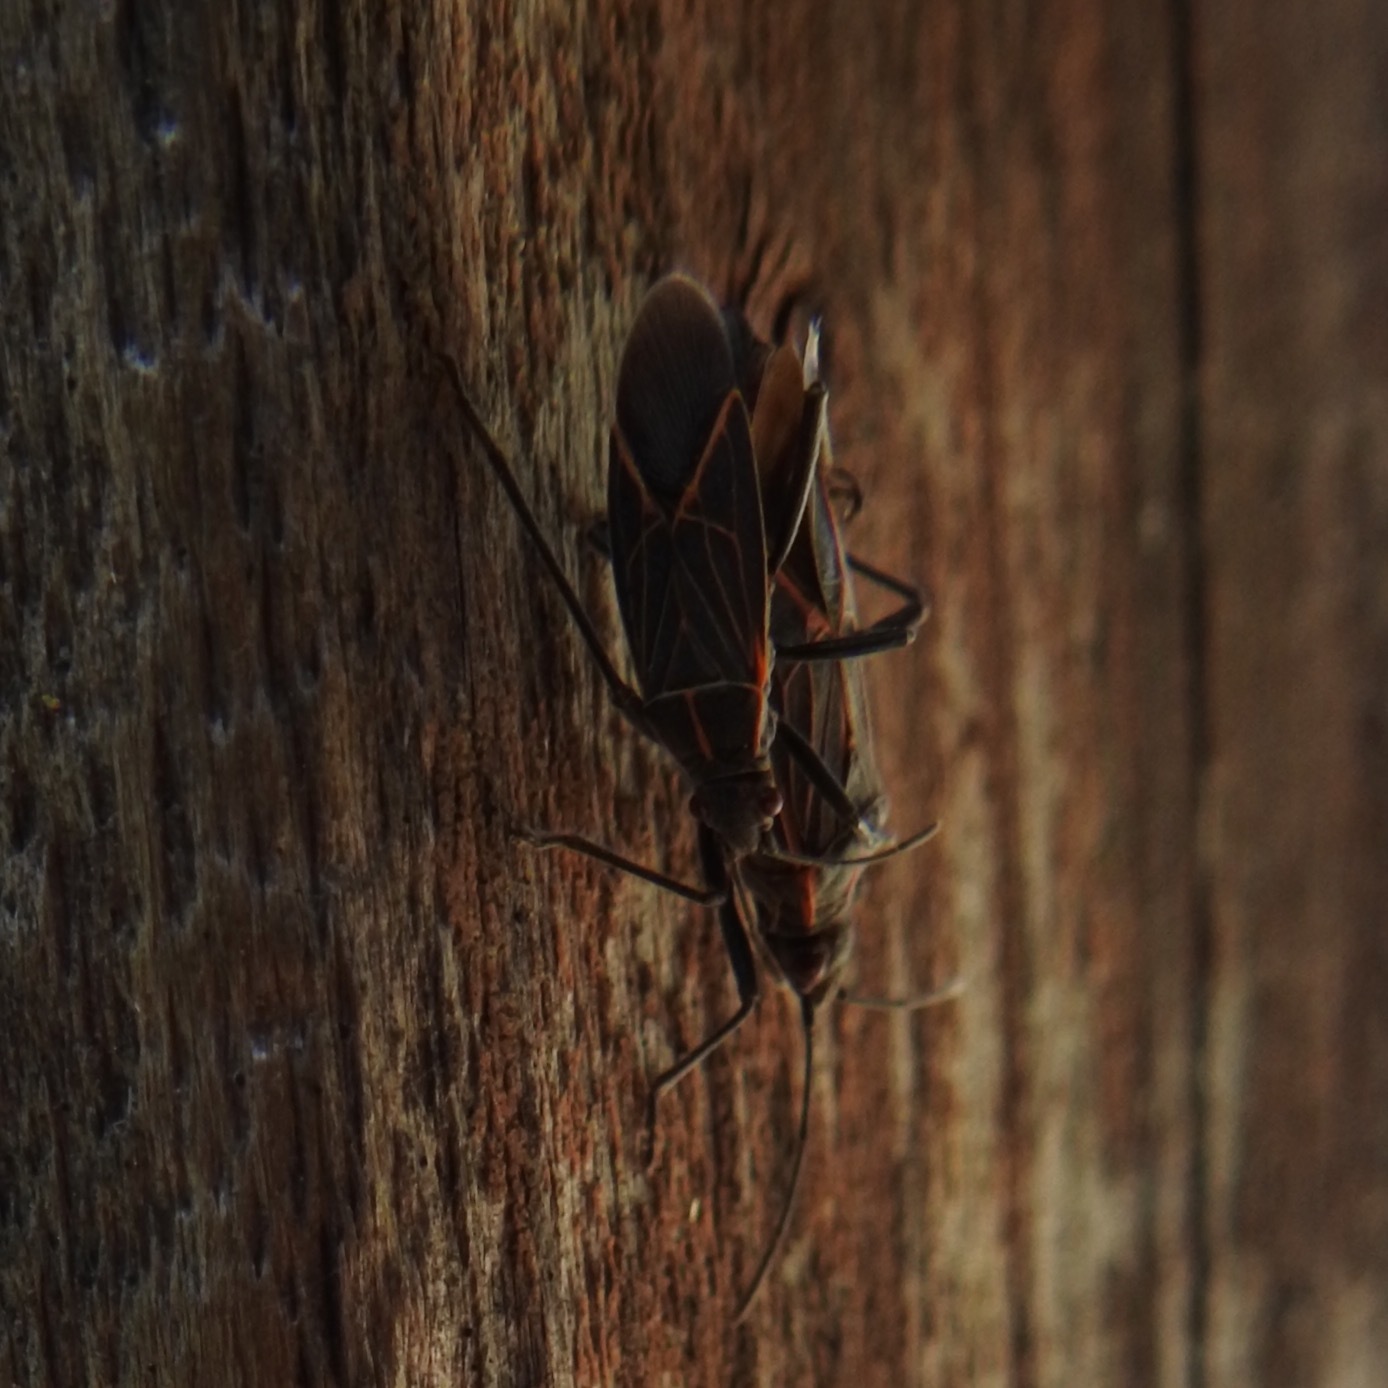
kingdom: Animalia
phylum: Arthropoda
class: Insecta
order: Hemiptera
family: Rhopalidae
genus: Boisea
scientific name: Boisea rubrolineata
